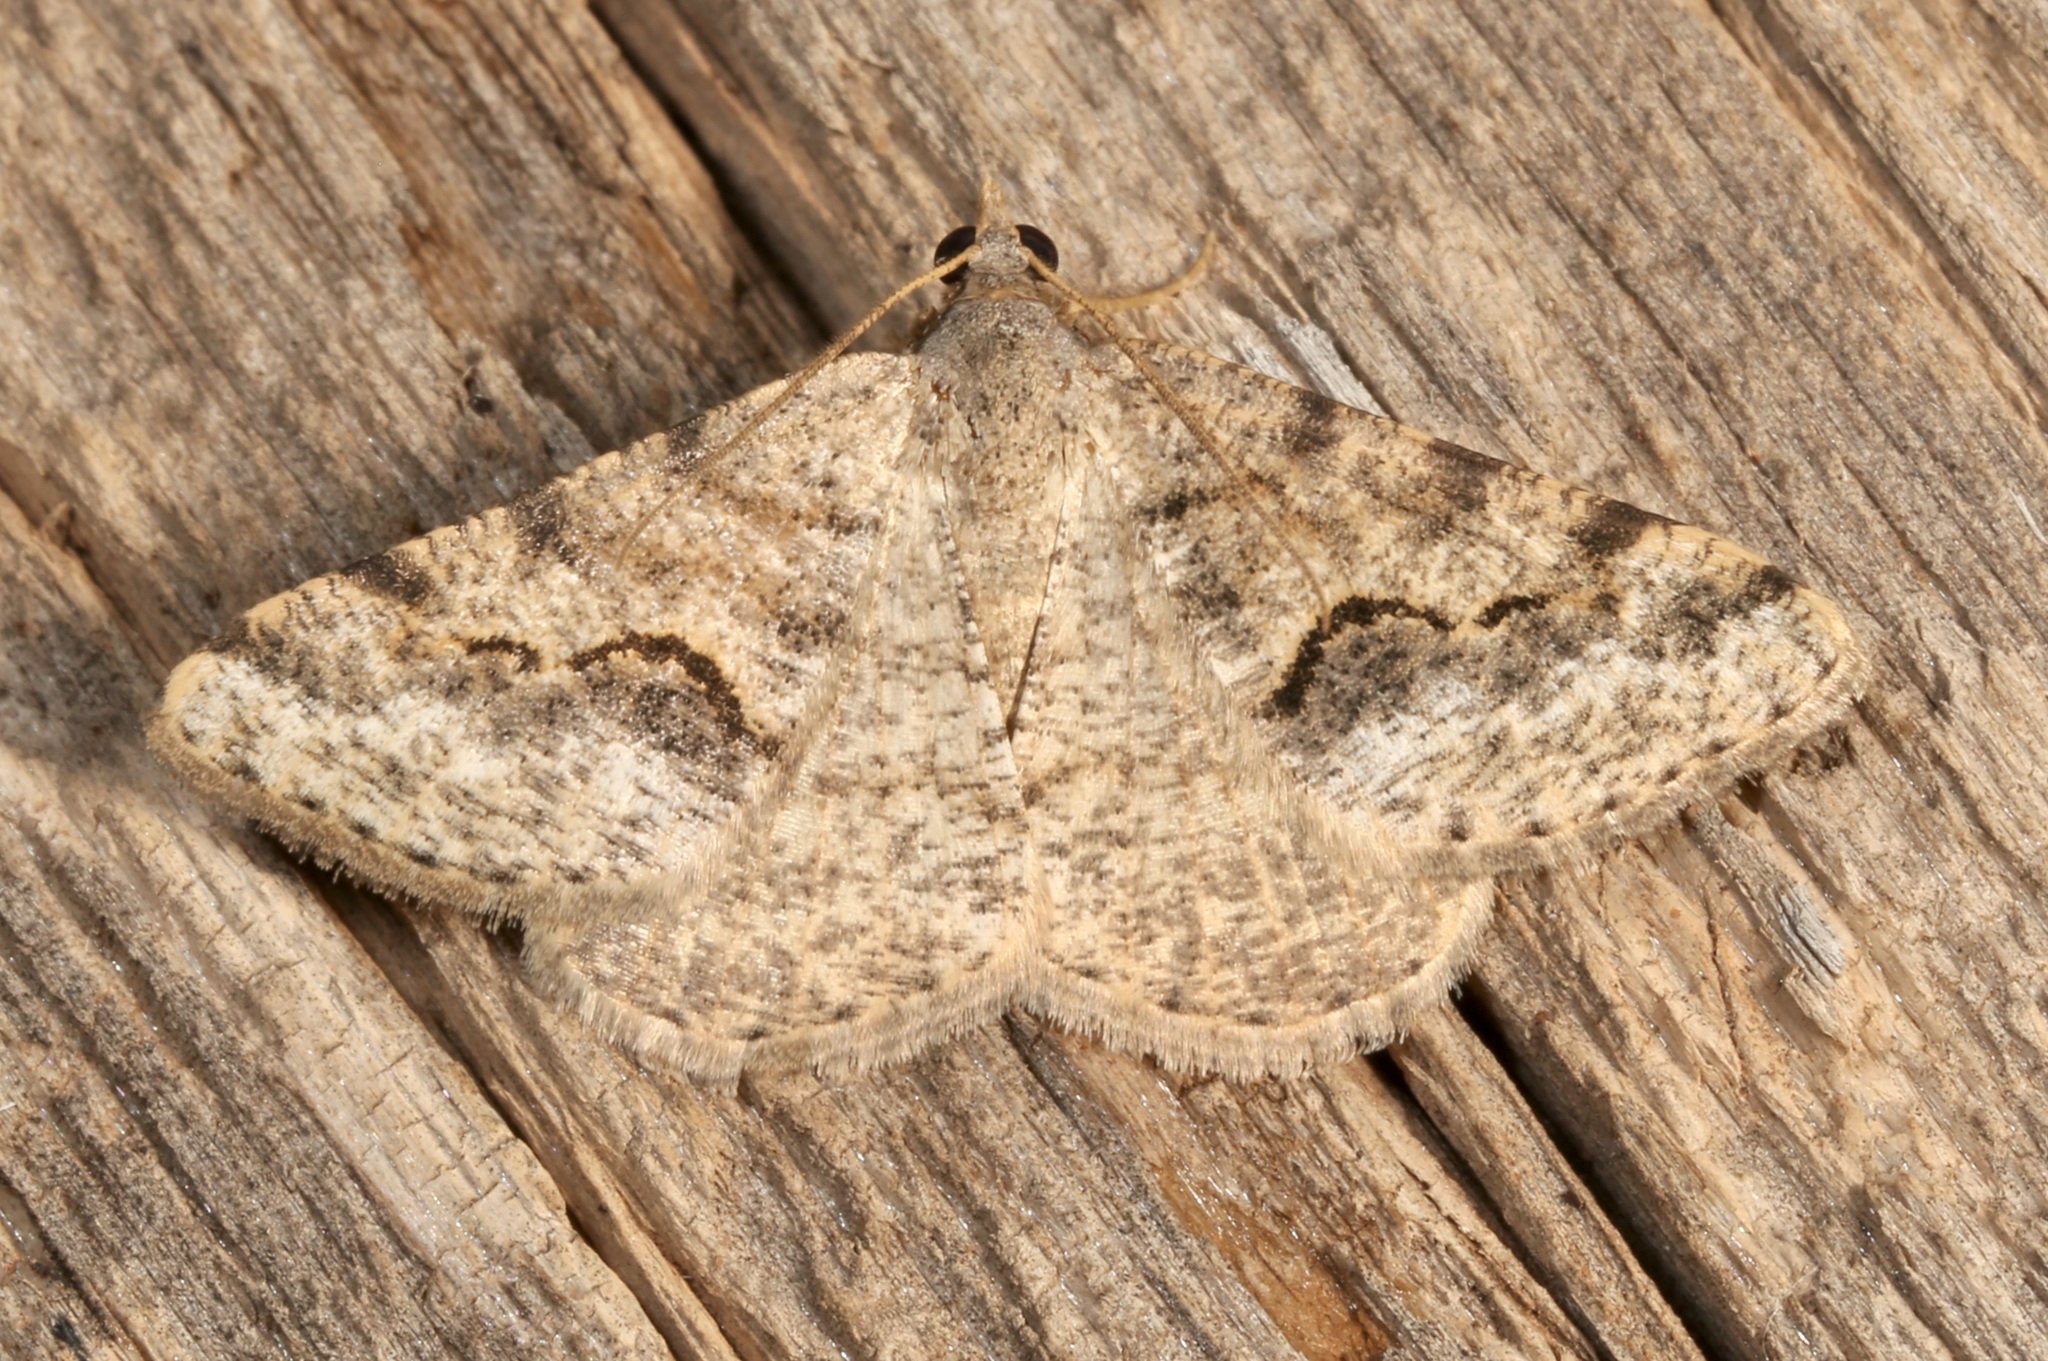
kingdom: Animalia
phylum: Arthropoda
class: Insecta
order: Lepidoptera
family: Geometridae
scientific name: Geometridae
